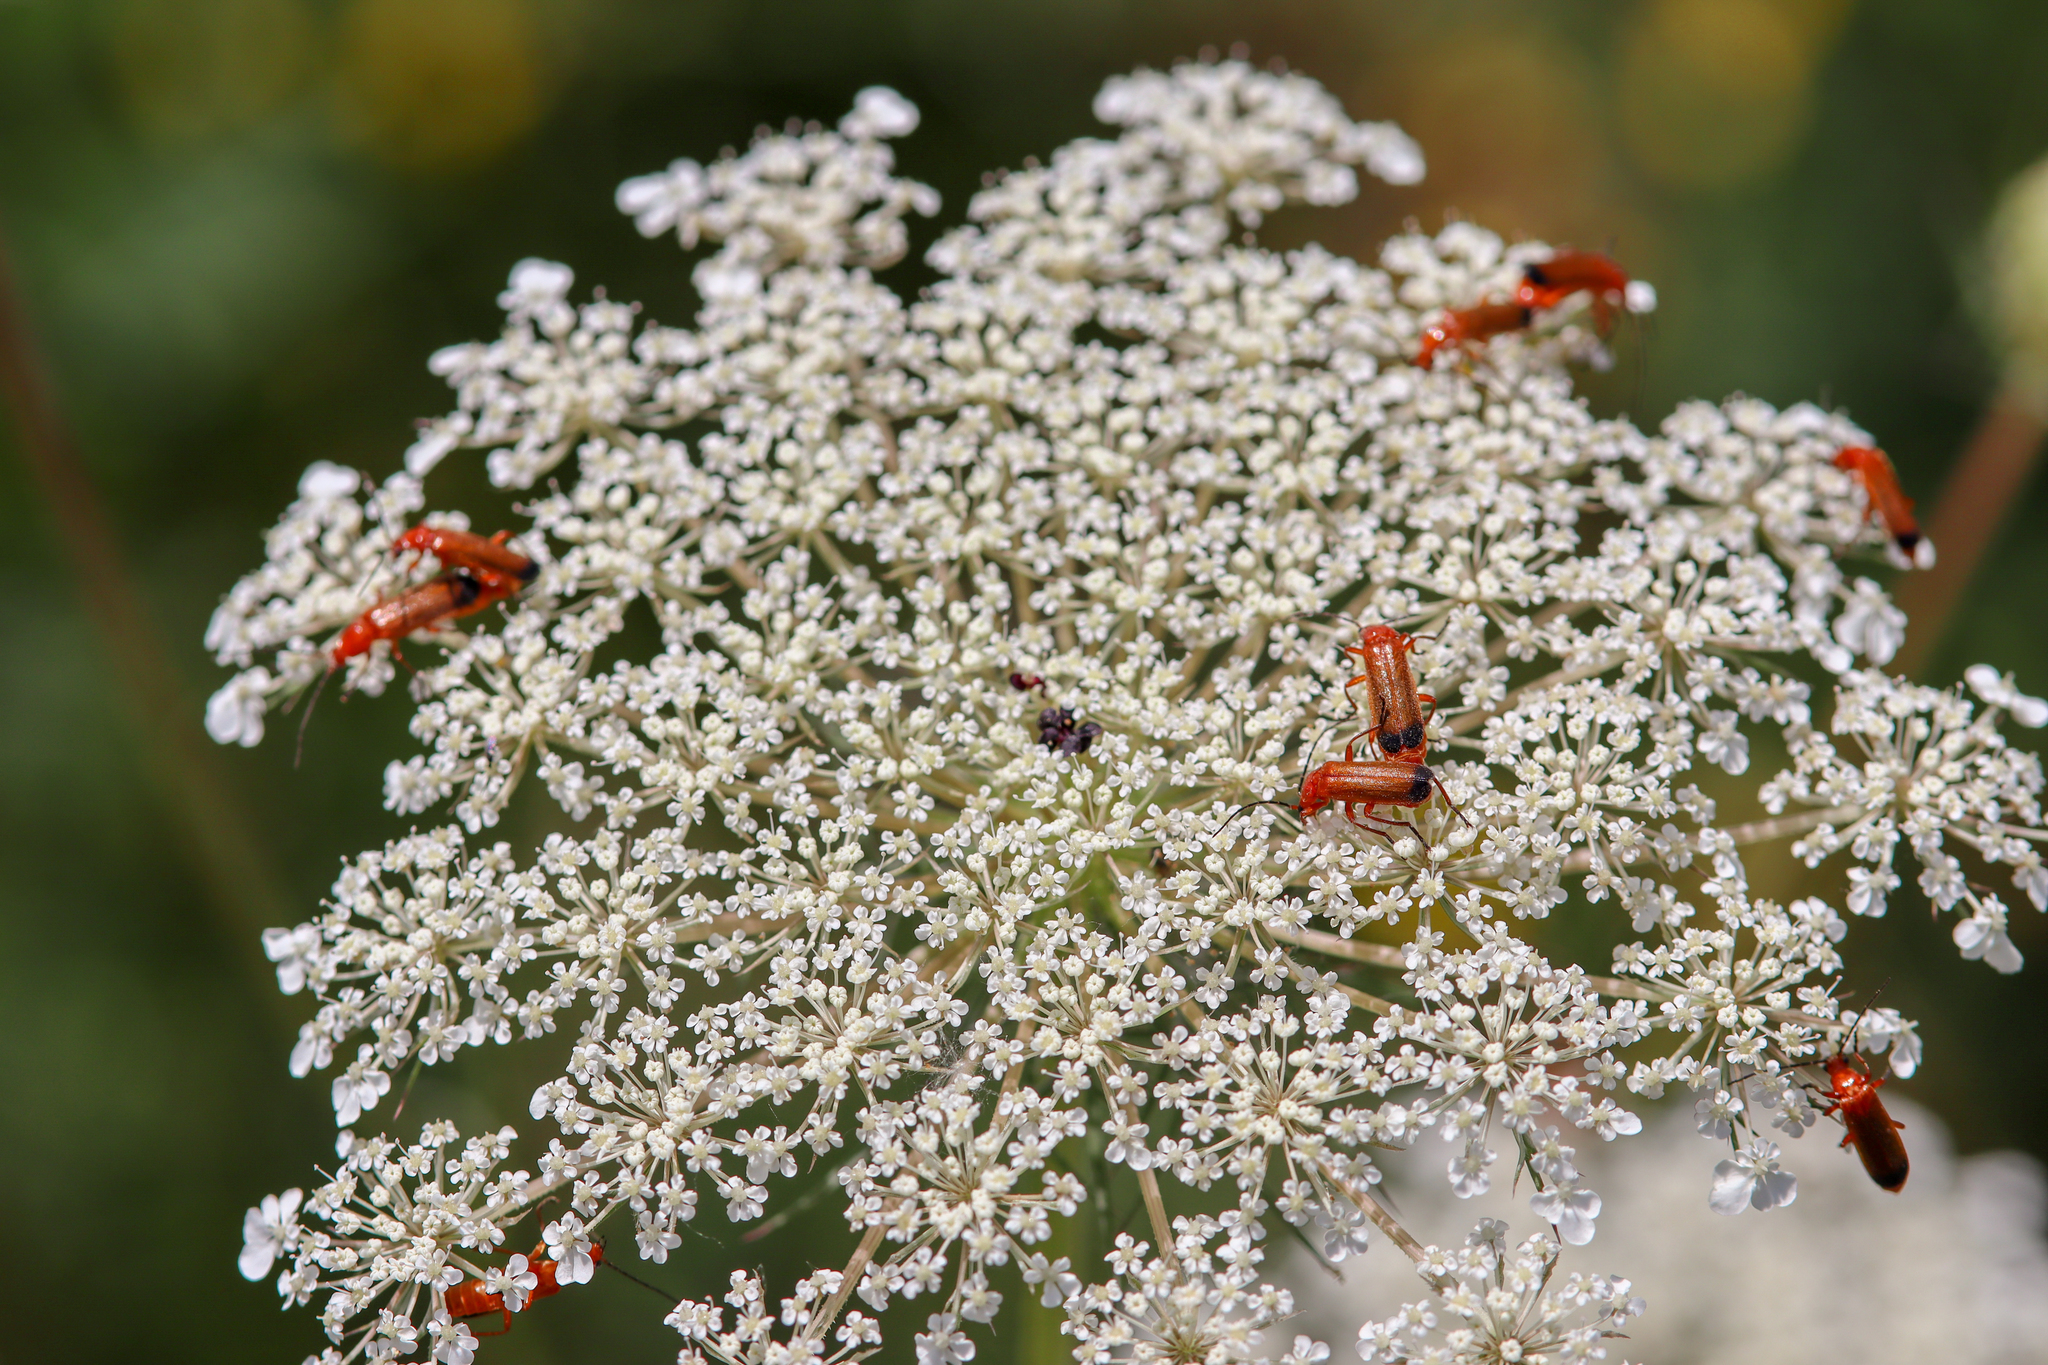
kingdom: Animalia
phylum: Arthropoda
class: Insecta
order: Coleoptera
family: Cantharidae
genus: Rhagonycha
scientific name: Rhagonycha fulva
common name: Common red soldier beetle
